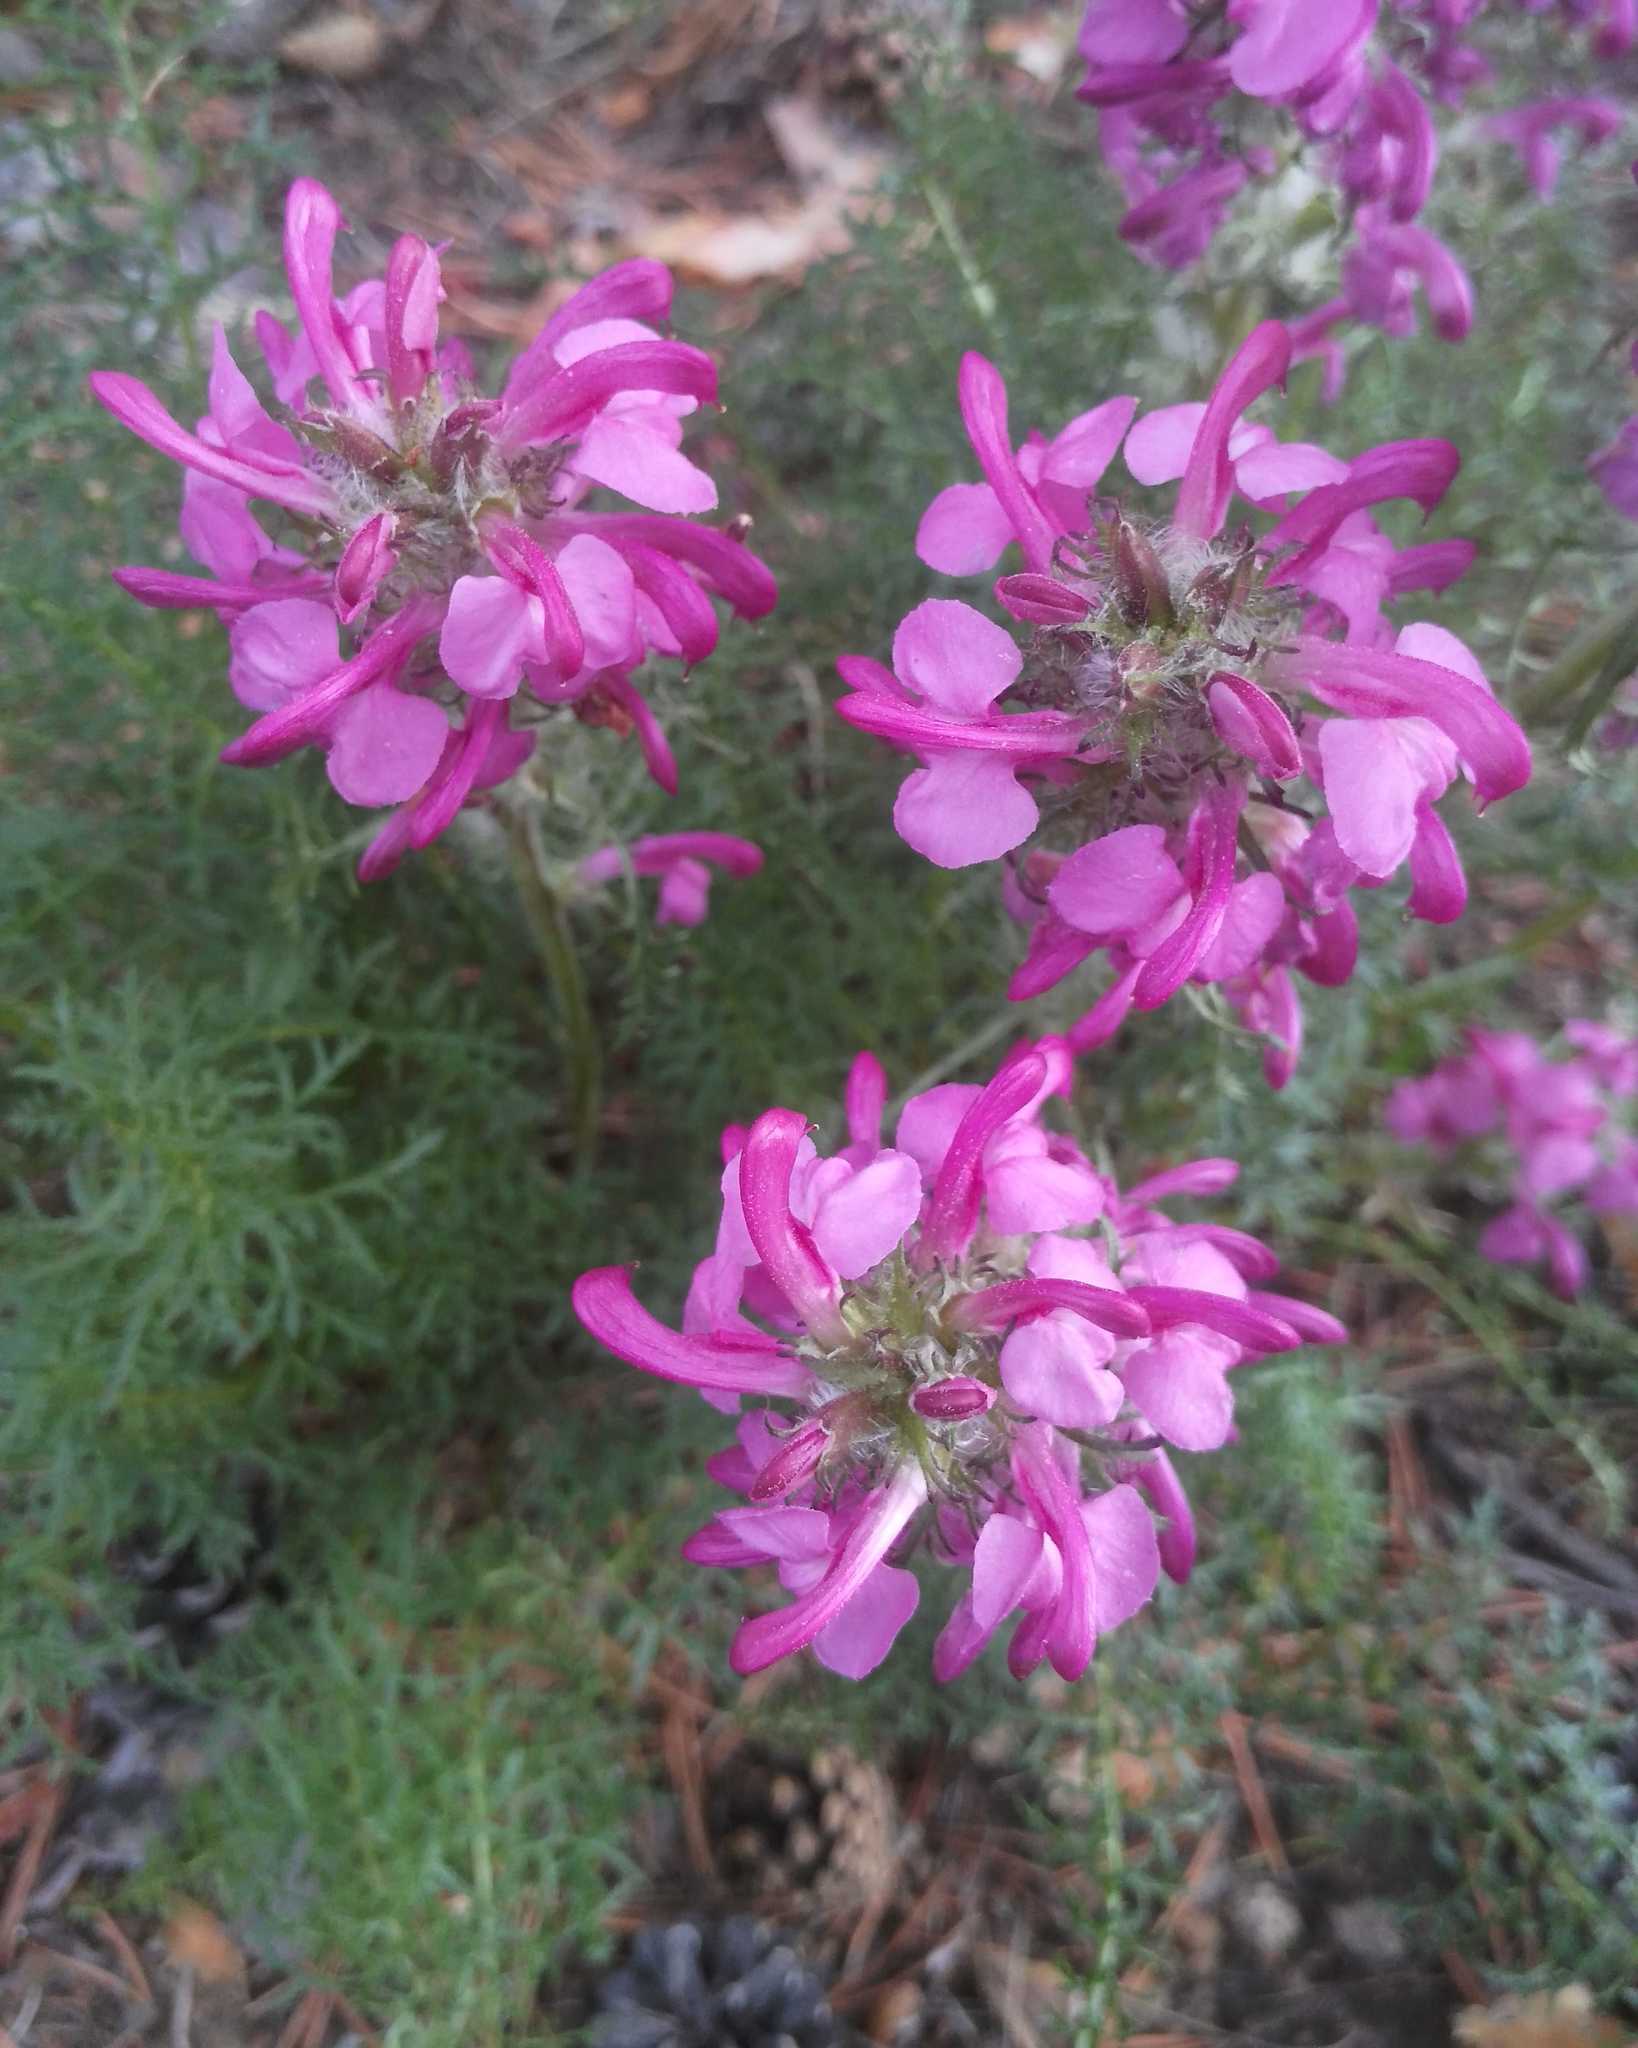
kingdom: Plantae
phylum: Tracheophyta
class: Magnoliopsida
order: Lamiales
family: Orobanchaceae
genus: Pedicularis
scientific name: Pedicularis rubens
